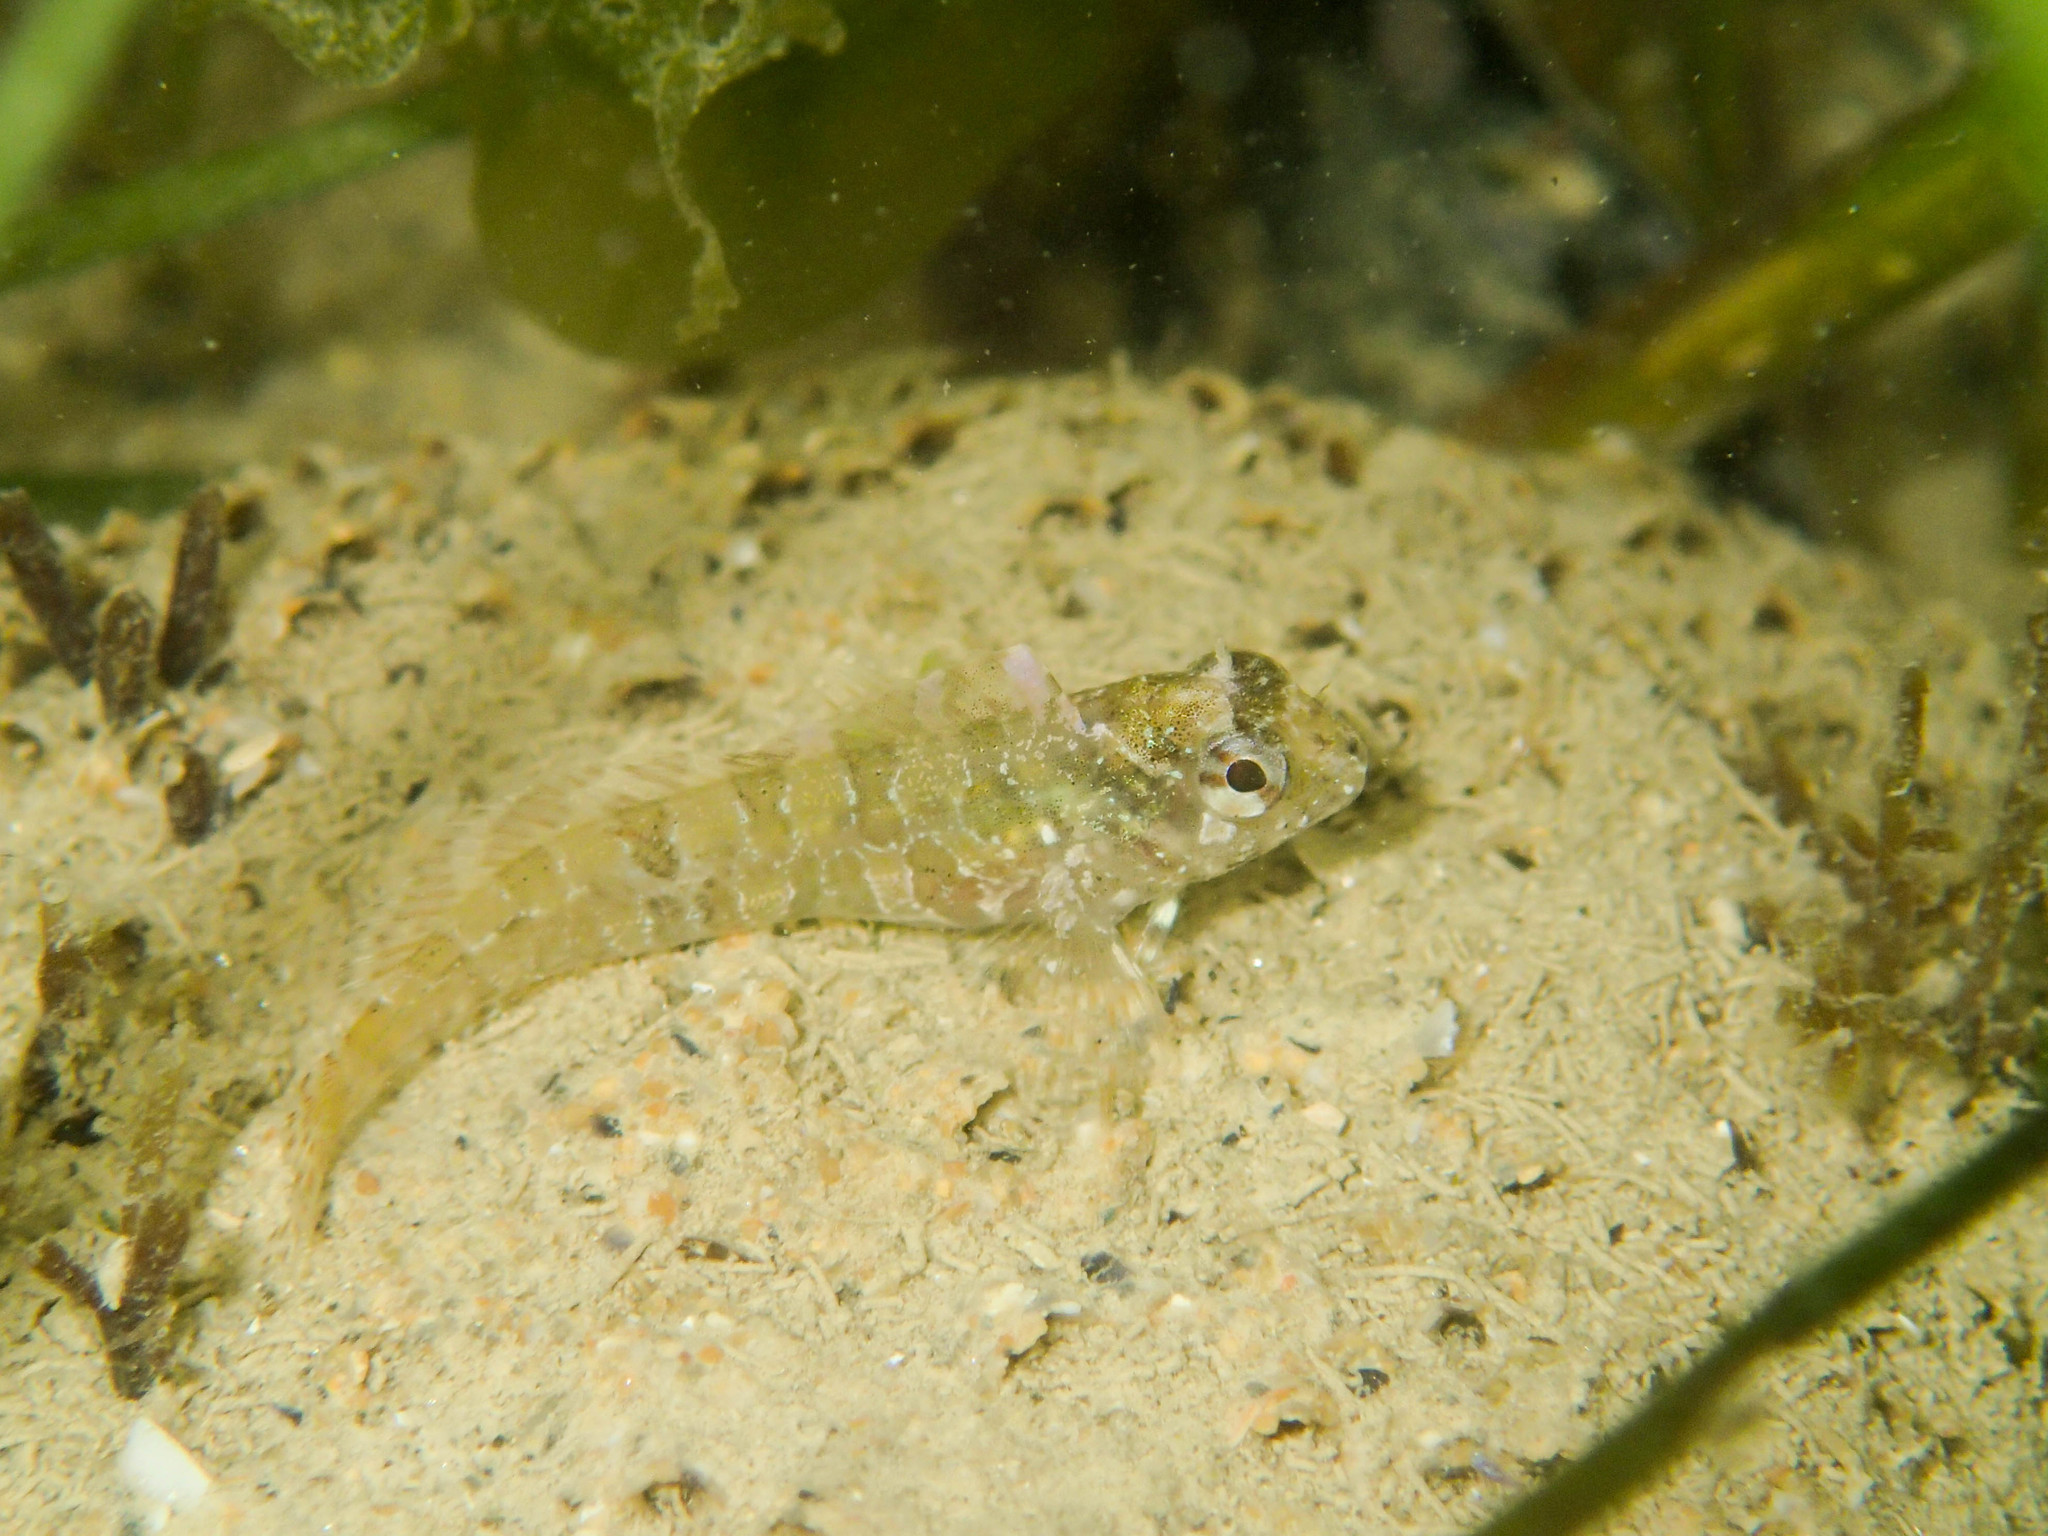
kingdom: Animalia
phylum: Chordata
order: Perciformes
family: Blenniidae
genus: Parablennius
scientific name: Parablennius gattorugine
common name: Tompot blenny
